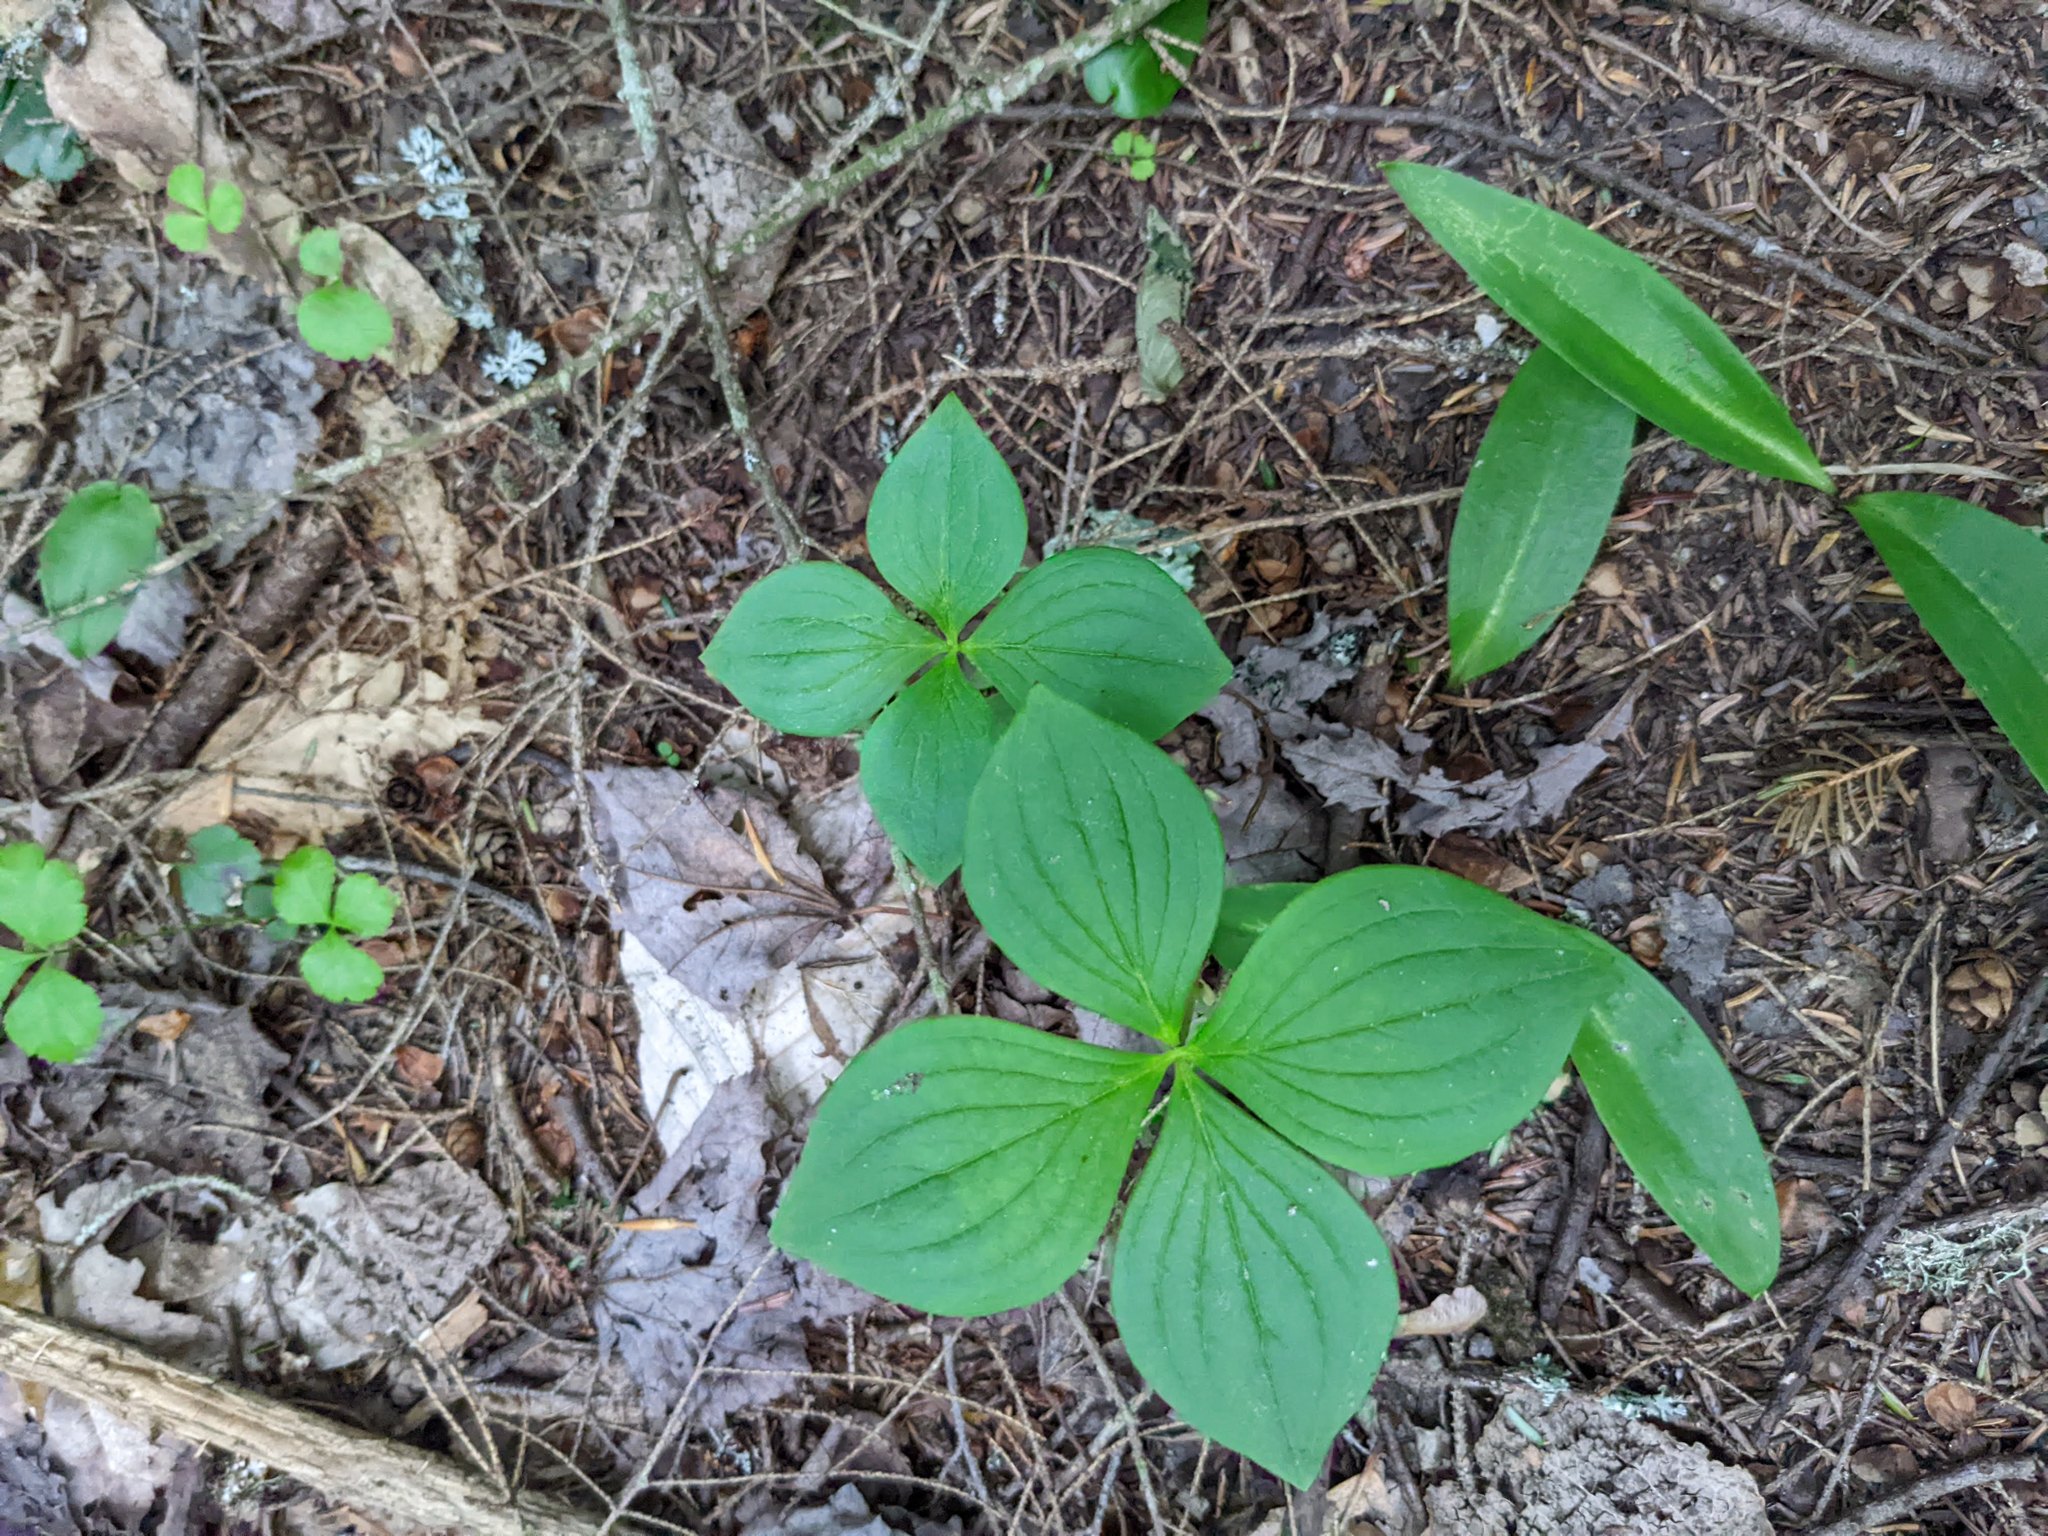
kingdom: Plantae
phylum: Tracheophyta
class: Magnoliopsida
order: Cornales
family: Cornaceae
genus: Cornus
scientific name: Cornus canadensis
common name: Creeping dogwood
